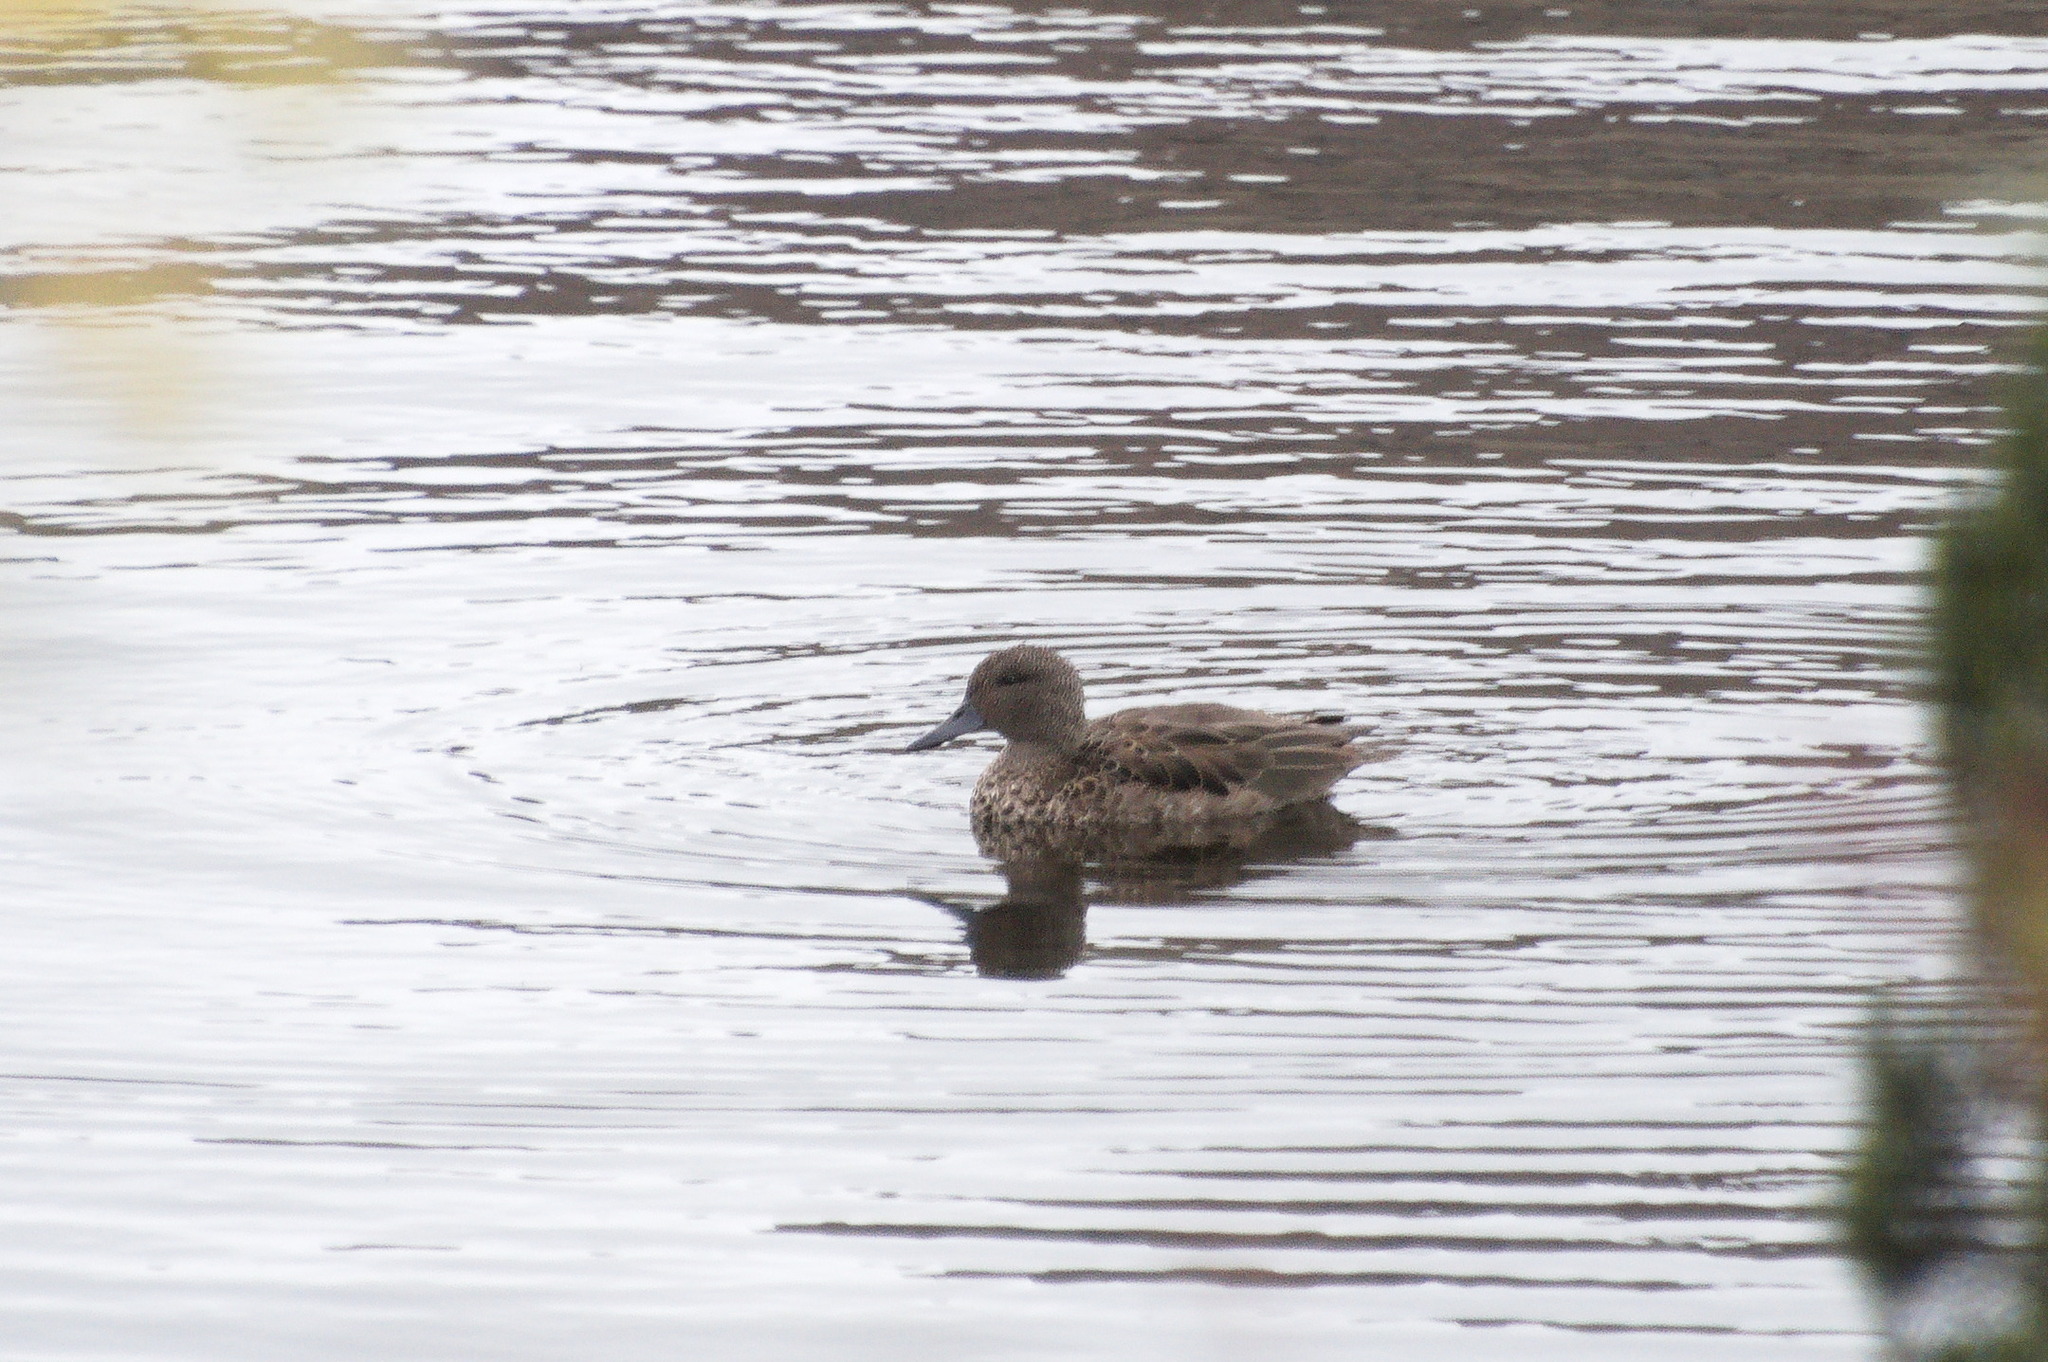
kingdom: Animalia
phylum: Chordata
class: Aves
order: Anseriformes
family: Anatidae
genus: Anas
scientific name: Anas andium
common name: Andean teal
